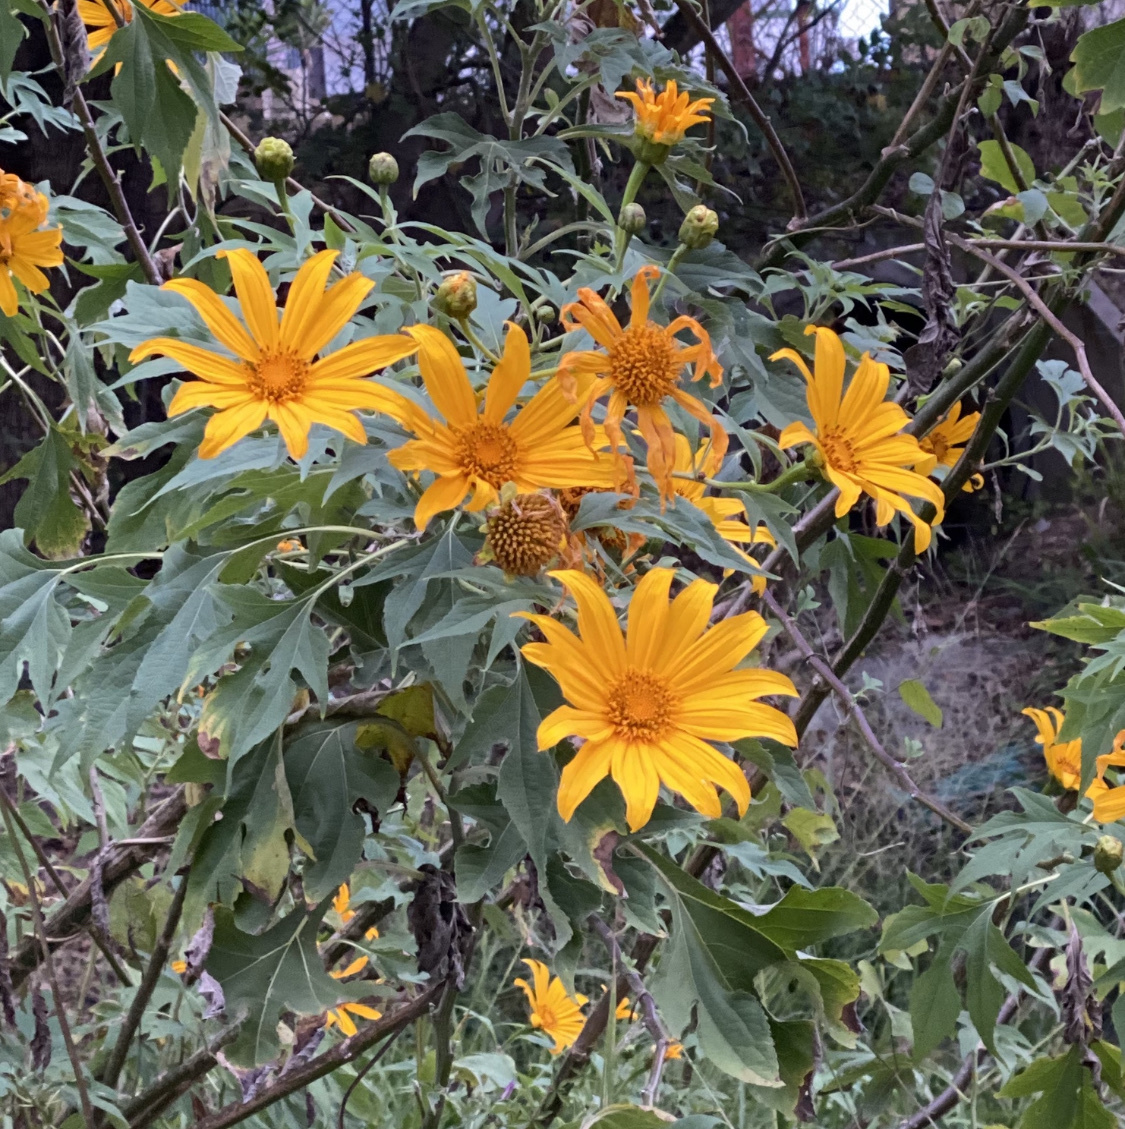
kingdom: Plantae
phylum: Tracheophyta
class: Magnoliopsida
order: Asterales
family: Asteraceae
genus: Tithonia
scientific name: Tithonia diversifolia
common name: Tree marigold
